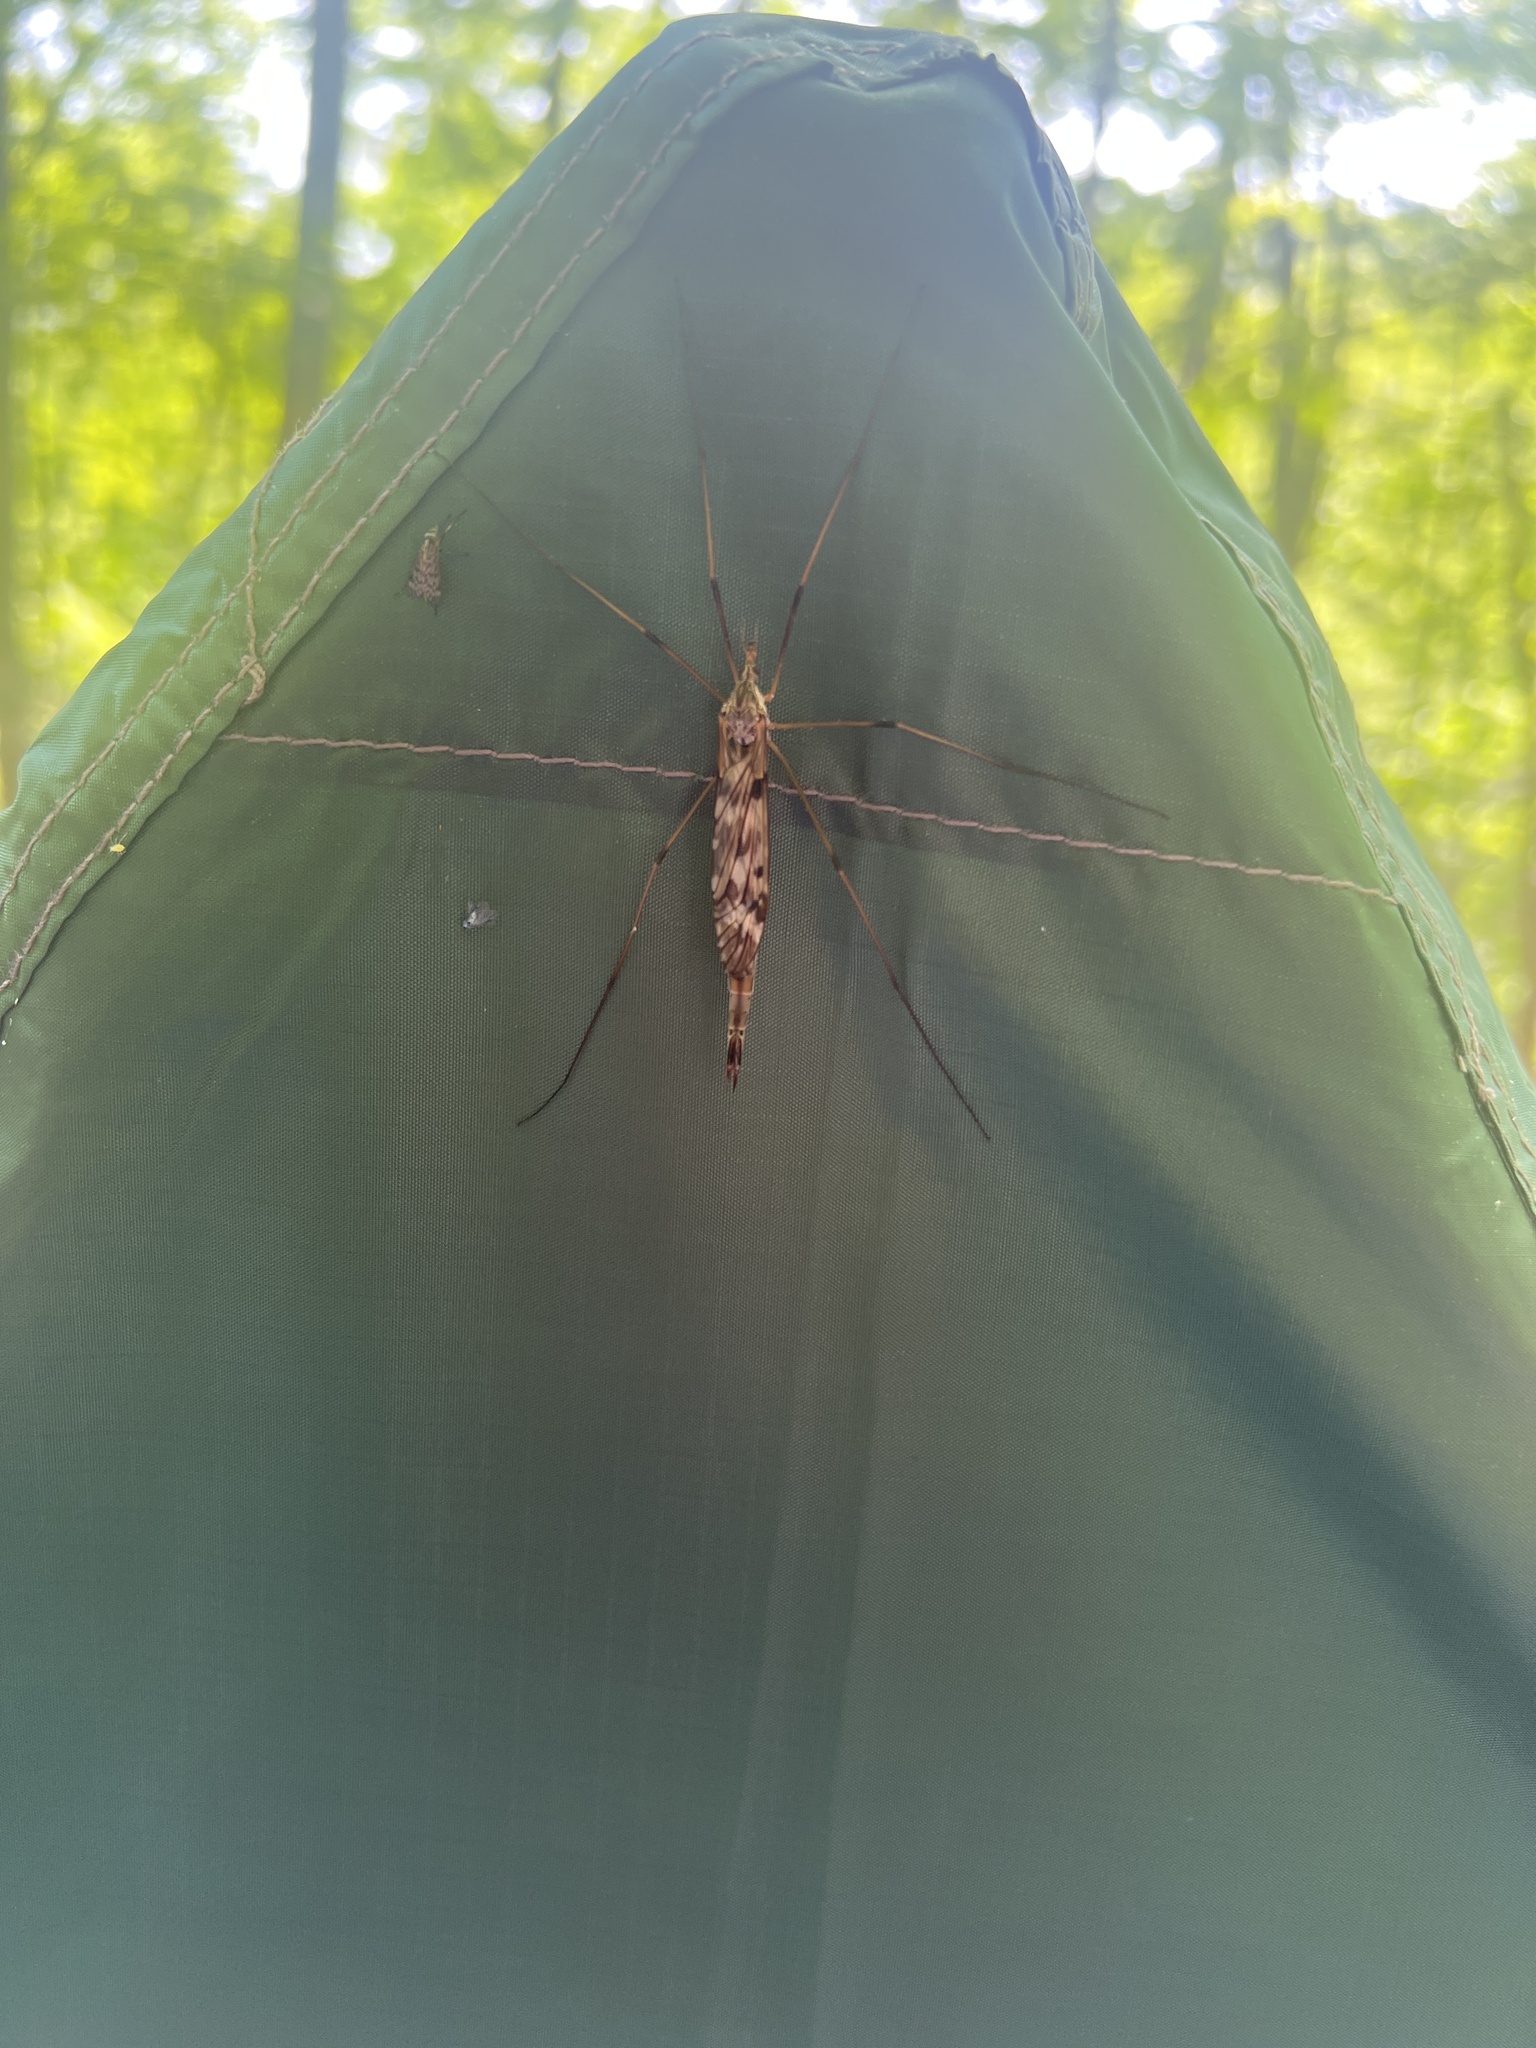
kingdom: Animalia
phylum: Arthropoda
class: Insecta
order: Diptera
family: Tipulidae
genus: Tipula
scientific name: Tipula longiventris
